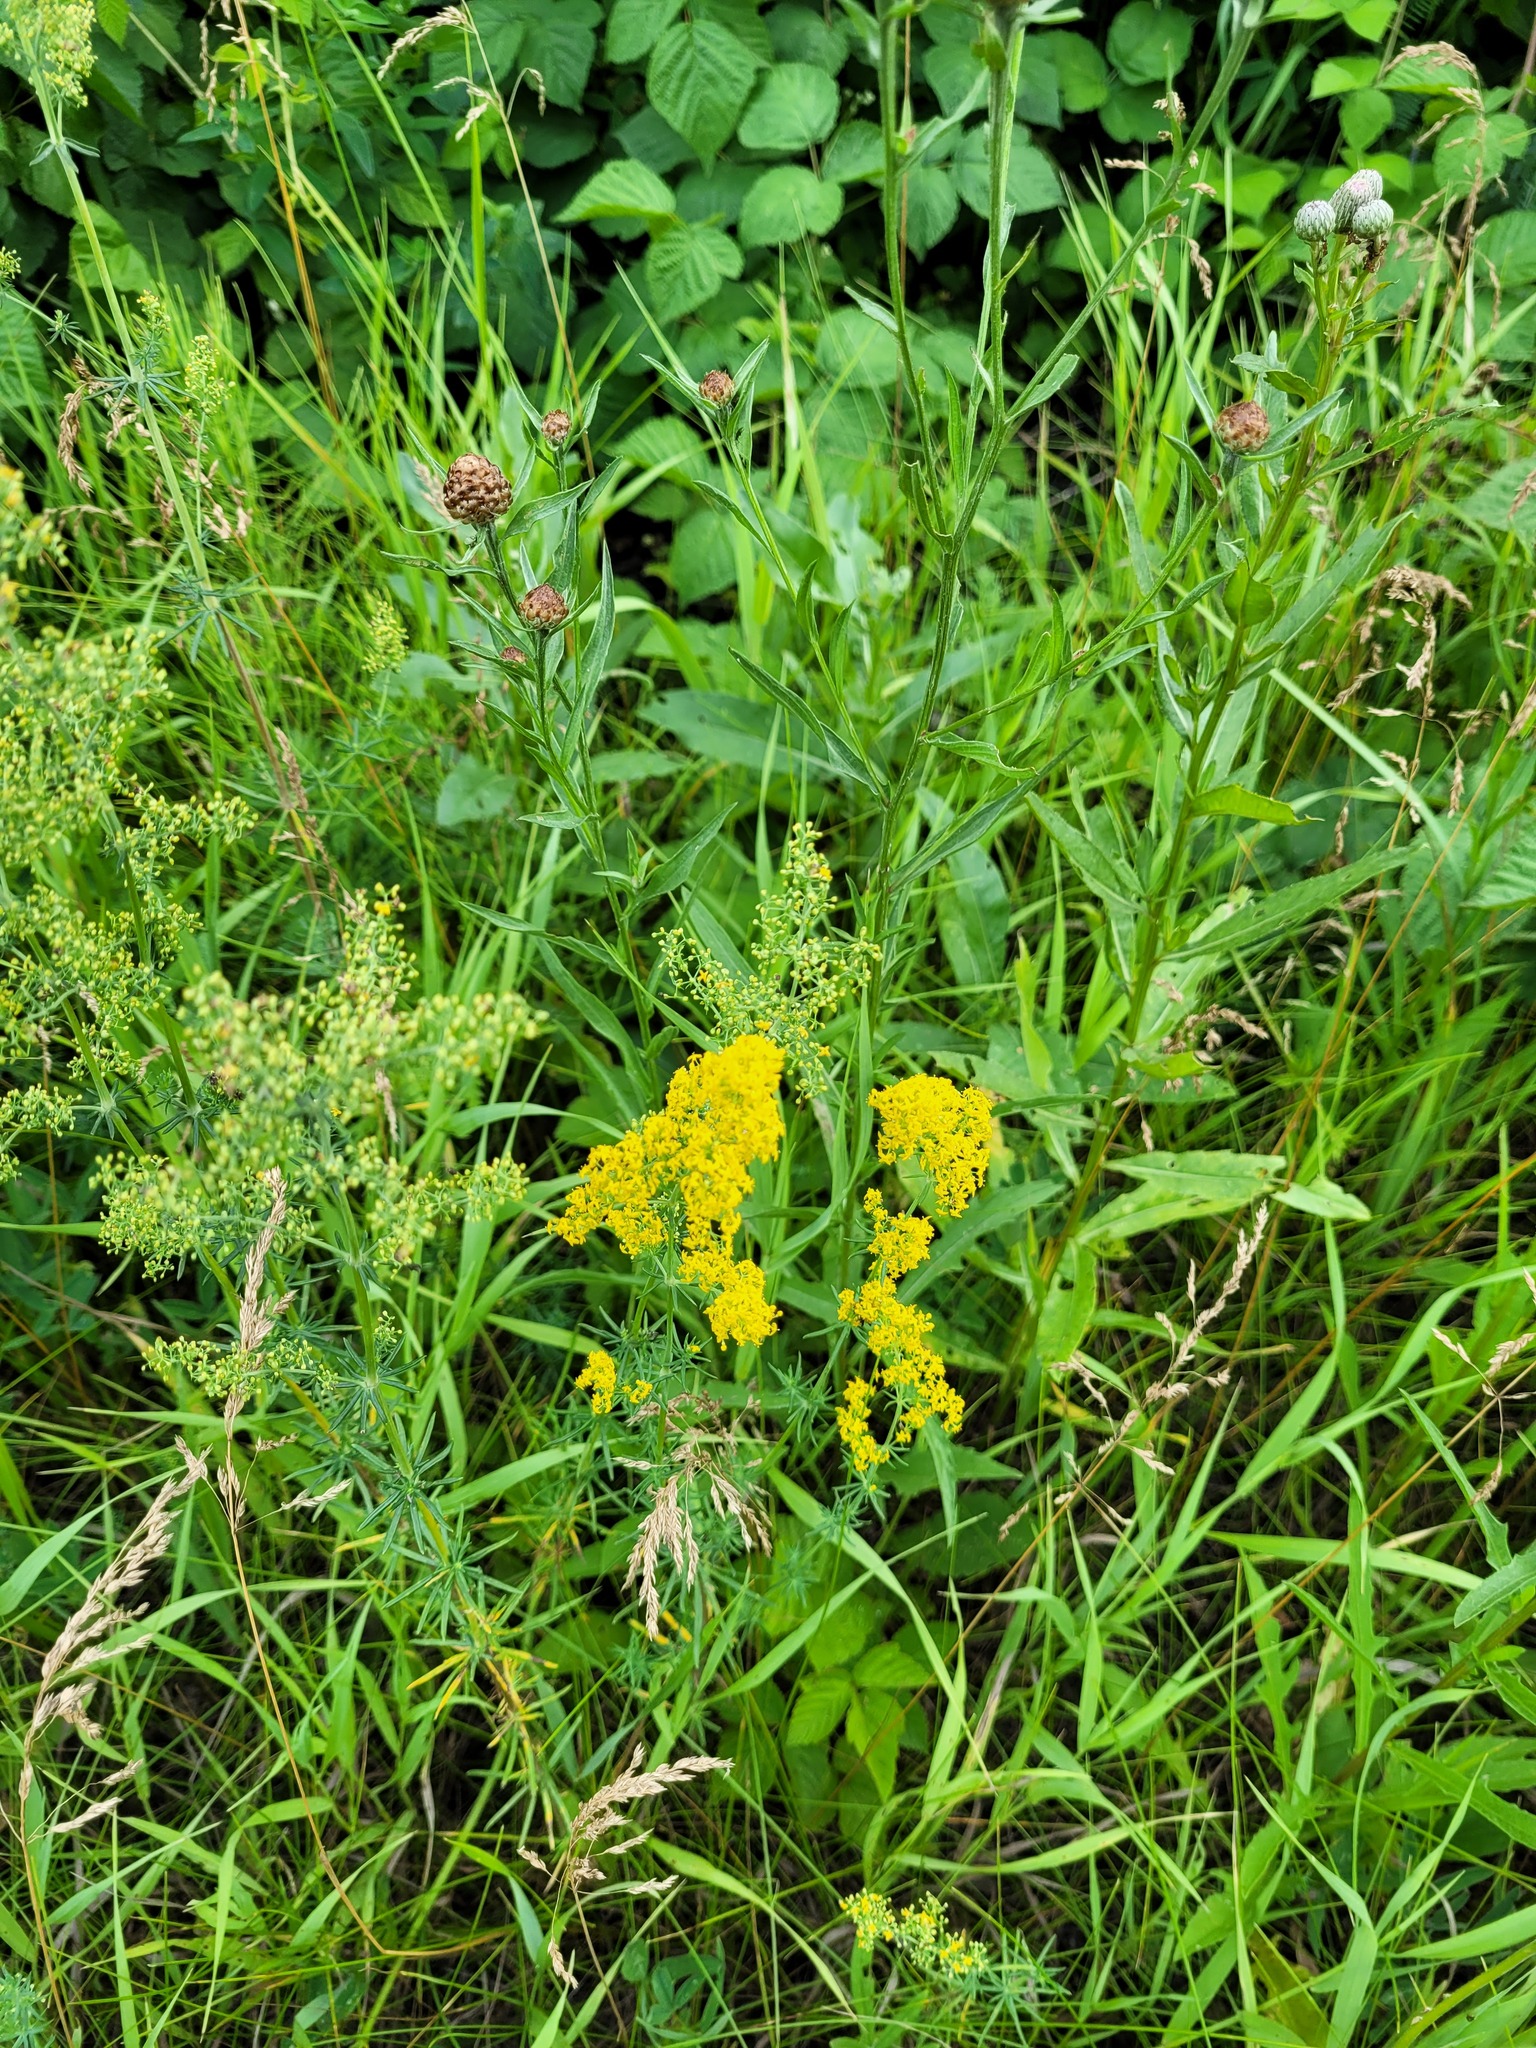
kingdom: Plantae
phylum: Tracheophyta
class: Magnoliopsida
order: Gentianales
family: Rubiaceae
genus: Galium
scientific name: Galium verum
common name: Lady's bedstraw
